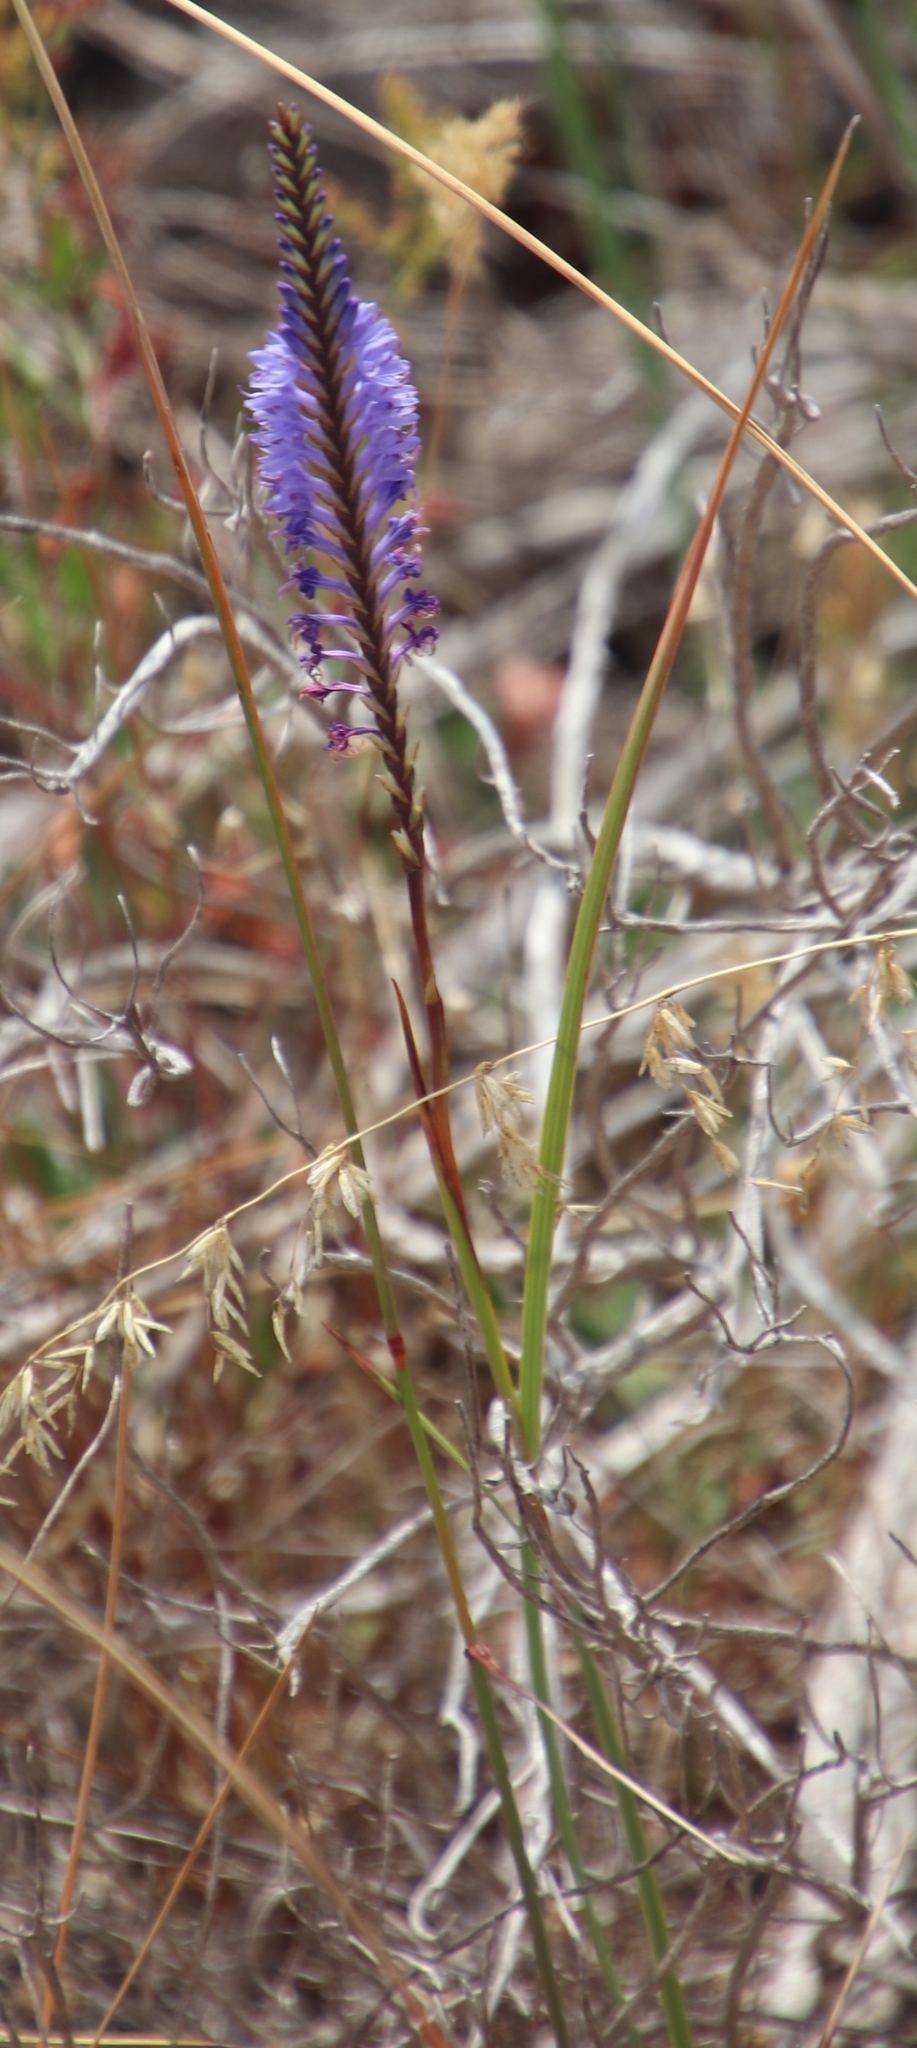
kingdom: Plantae
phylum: Tracheophyta
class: Liliopsida
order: Asparagales
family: Iridaceae
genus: Micranthus
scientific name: Micranthus alopecuroides
